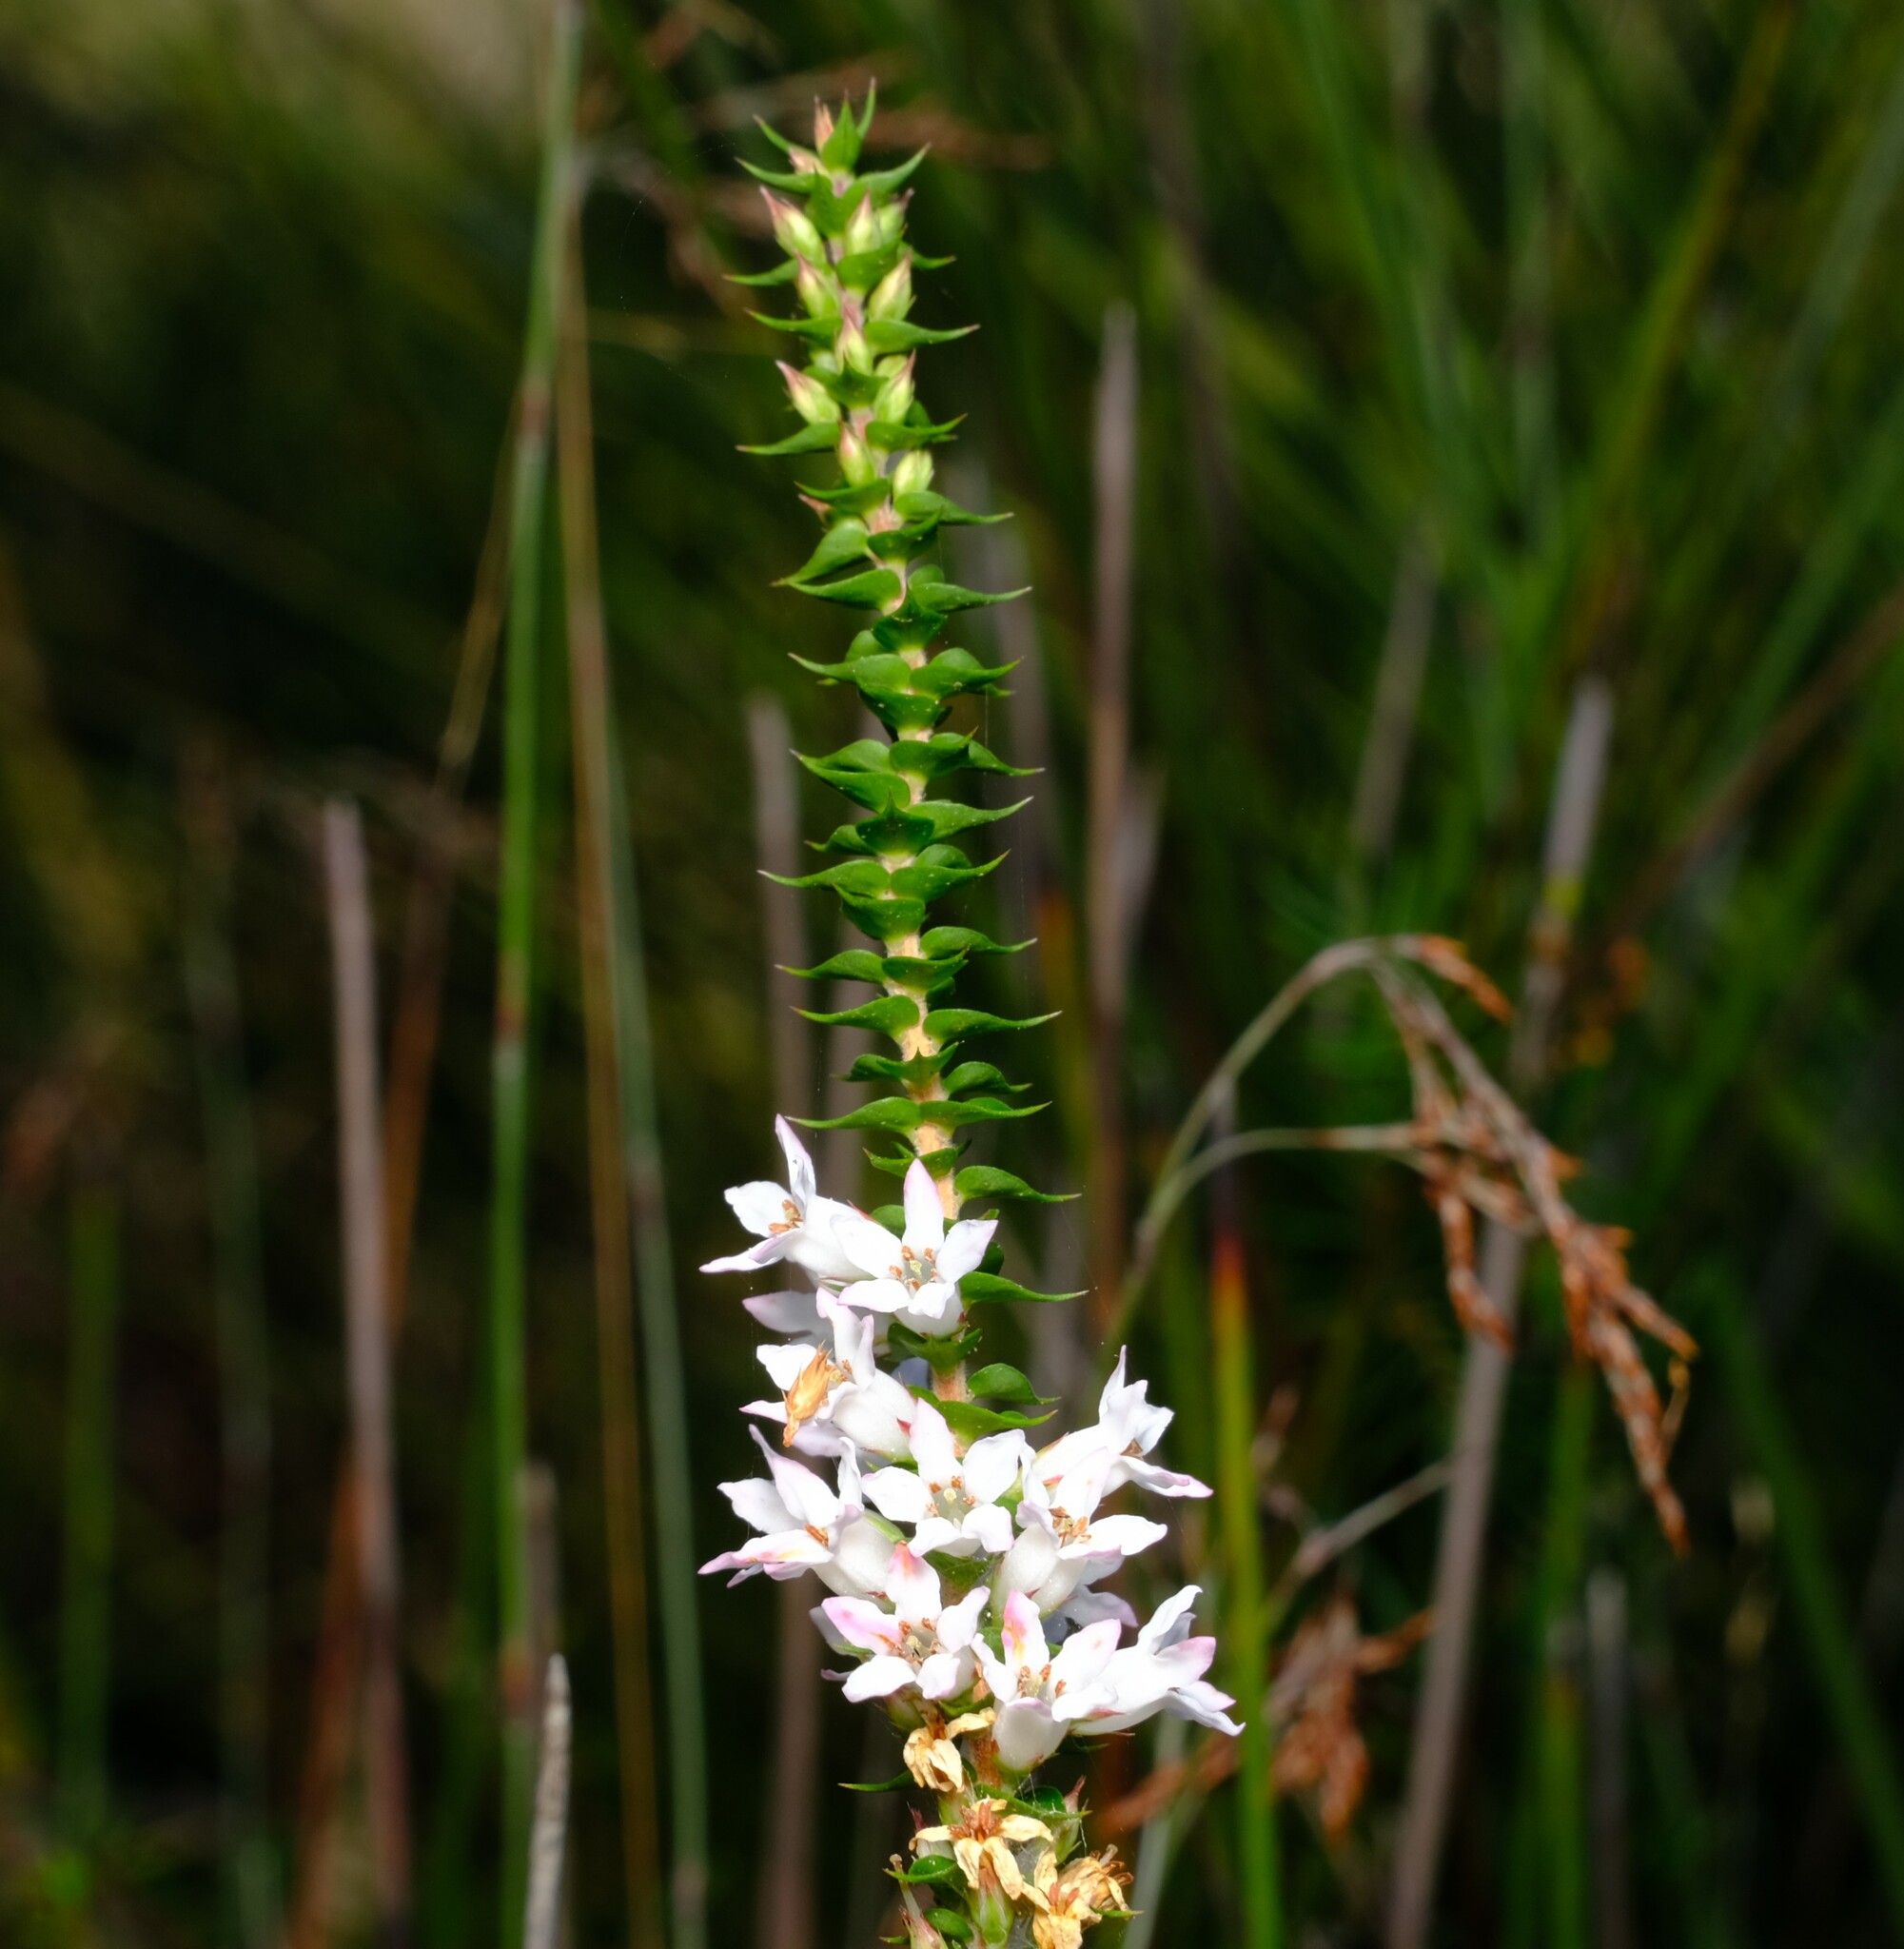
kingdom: Plantae
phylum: Tracheophyta
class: Magnoliopsida
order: Ericales
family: Ericaceae
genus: Epacris
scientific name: Epacris pulchella
